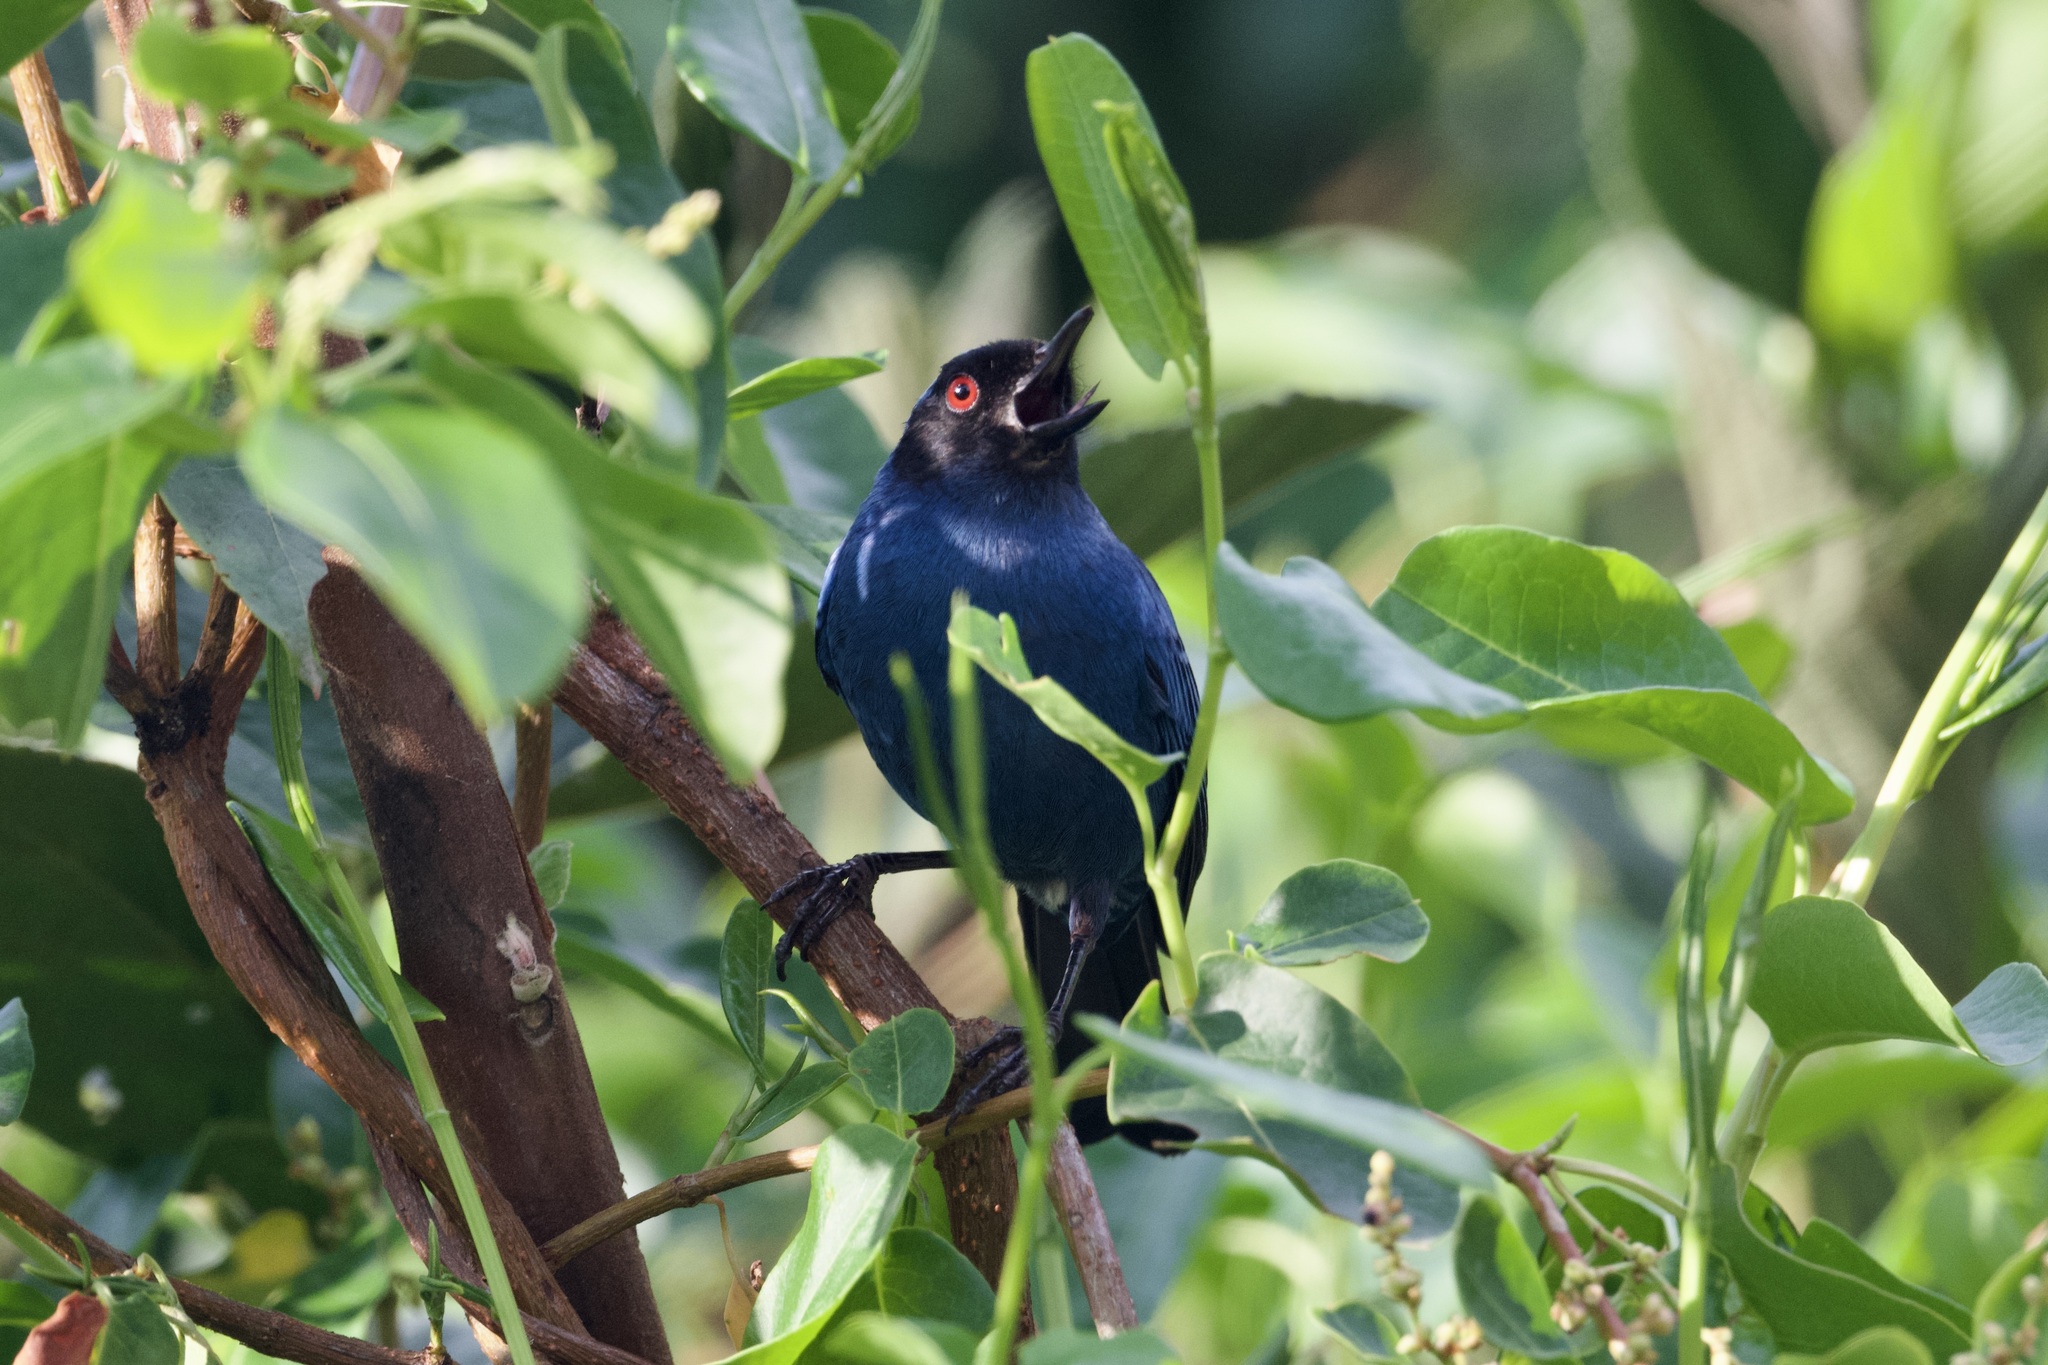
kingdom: Animalia
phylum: Chordata
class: Aves
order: Passeriformes
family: Thraupidae
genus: Diglossa
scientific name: Diglossa cyanea
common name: Masked flowerpiercer
